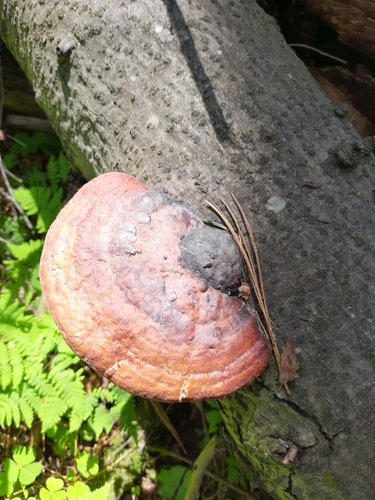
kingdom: Fungi
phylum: Basidiomycota
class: Agaricomycetes
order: Polyporales
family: Fomitopsidaceae
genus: Fomitopsis
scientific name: Fomitopsis pinicola
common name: Red-belted bracket
